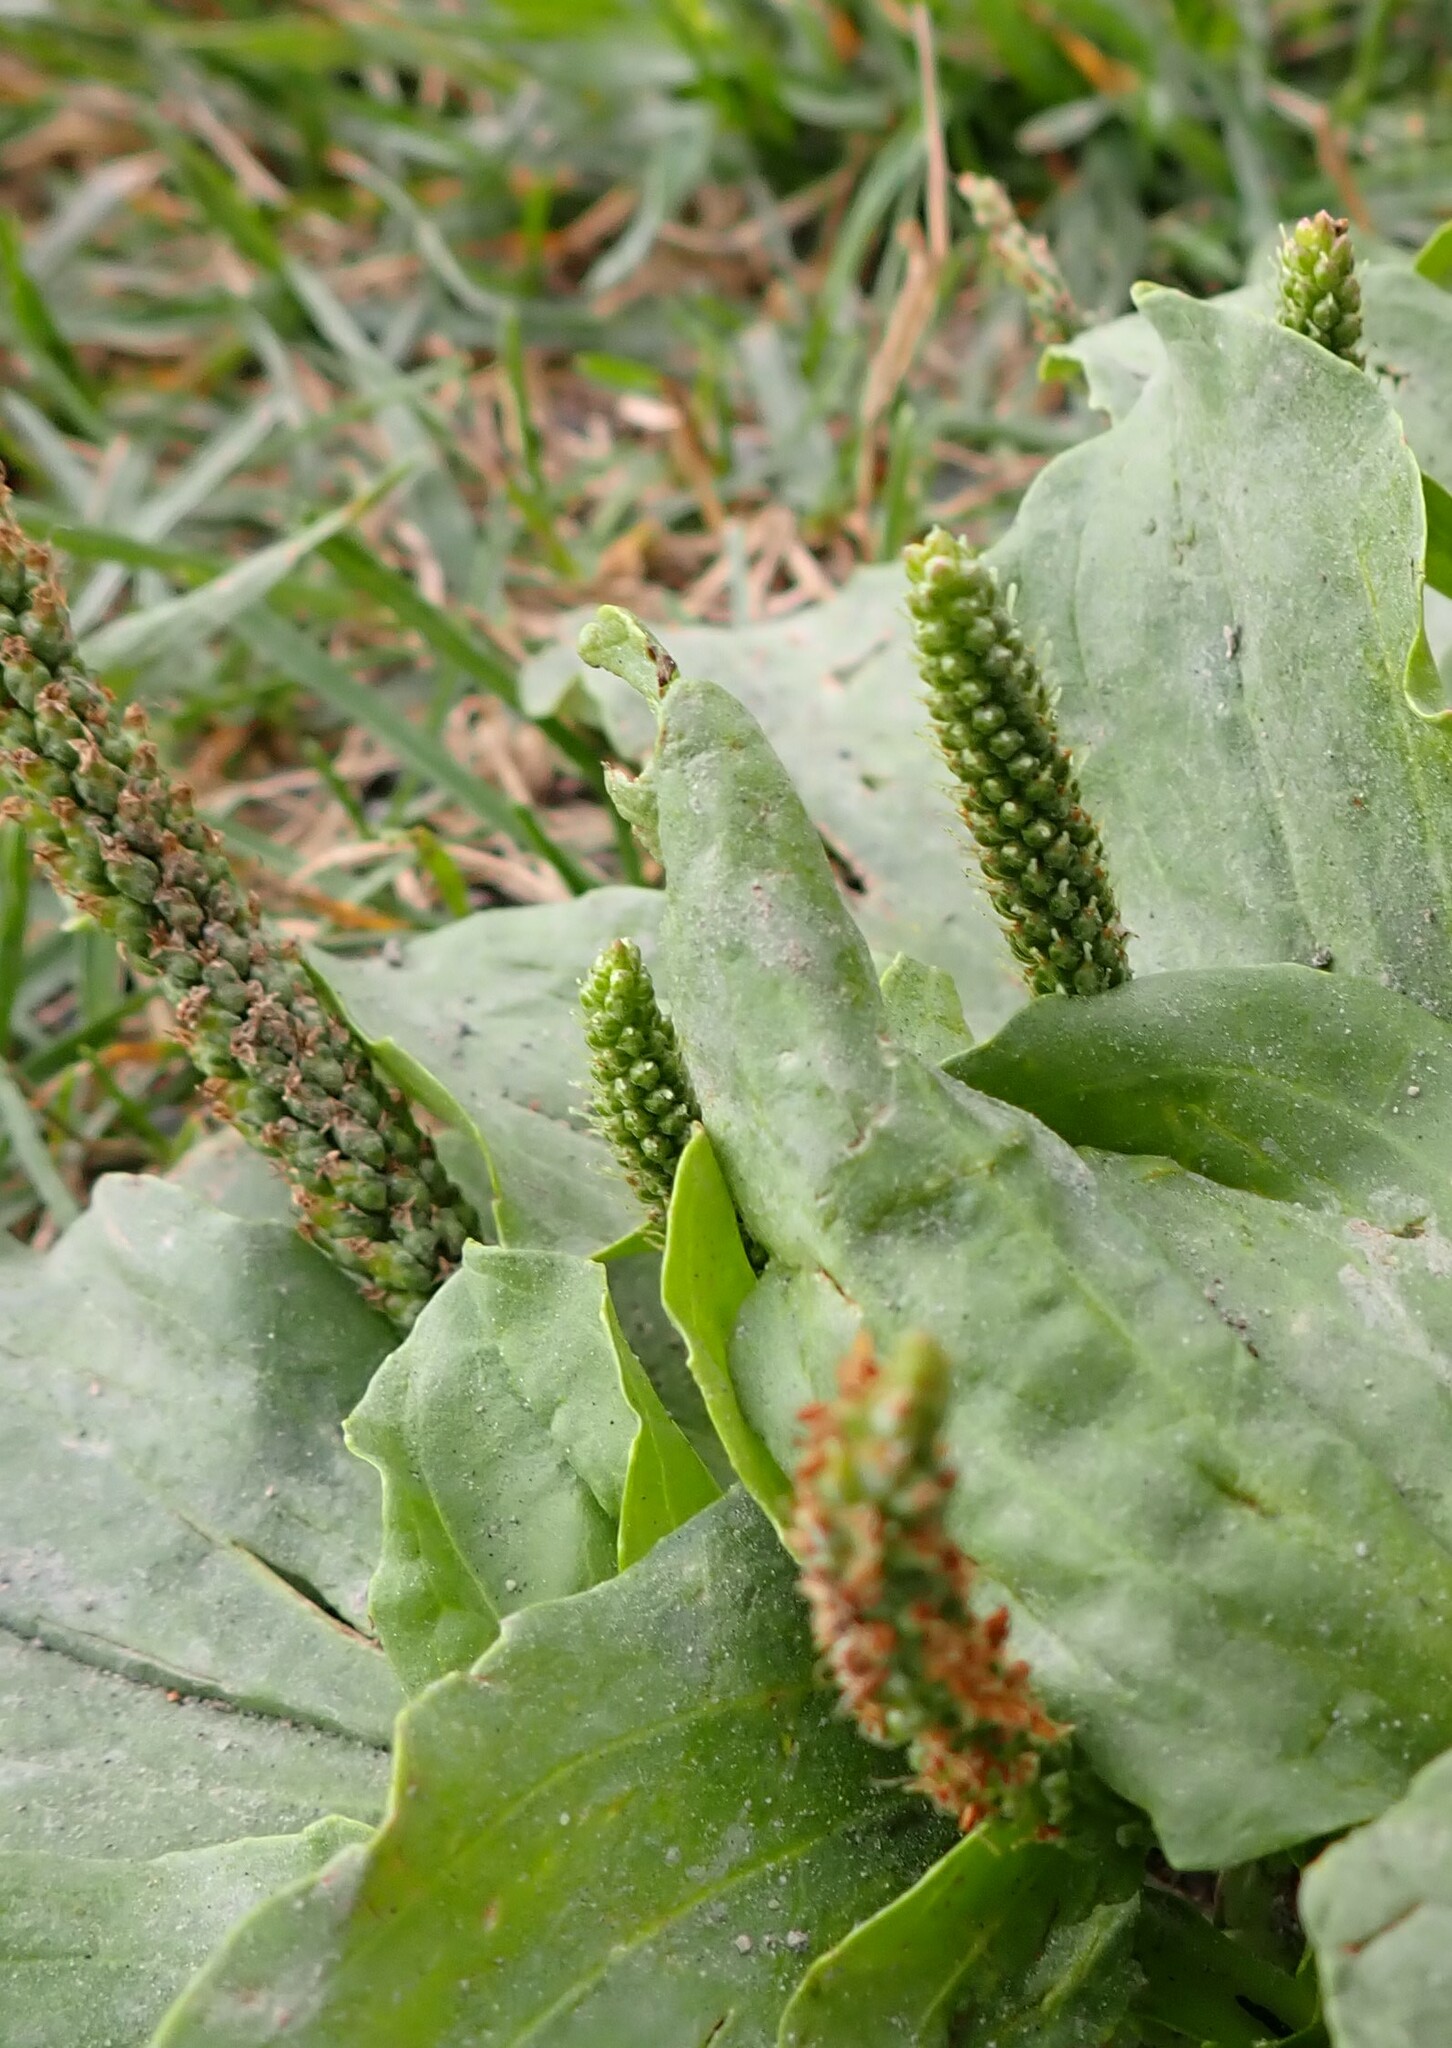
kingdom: Plantae
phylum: Tracheophyta
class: Magnoliopsida
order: Lamiales
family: Plantaginaceae
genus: Plantago
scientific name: Plantago major
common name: Common plantain
